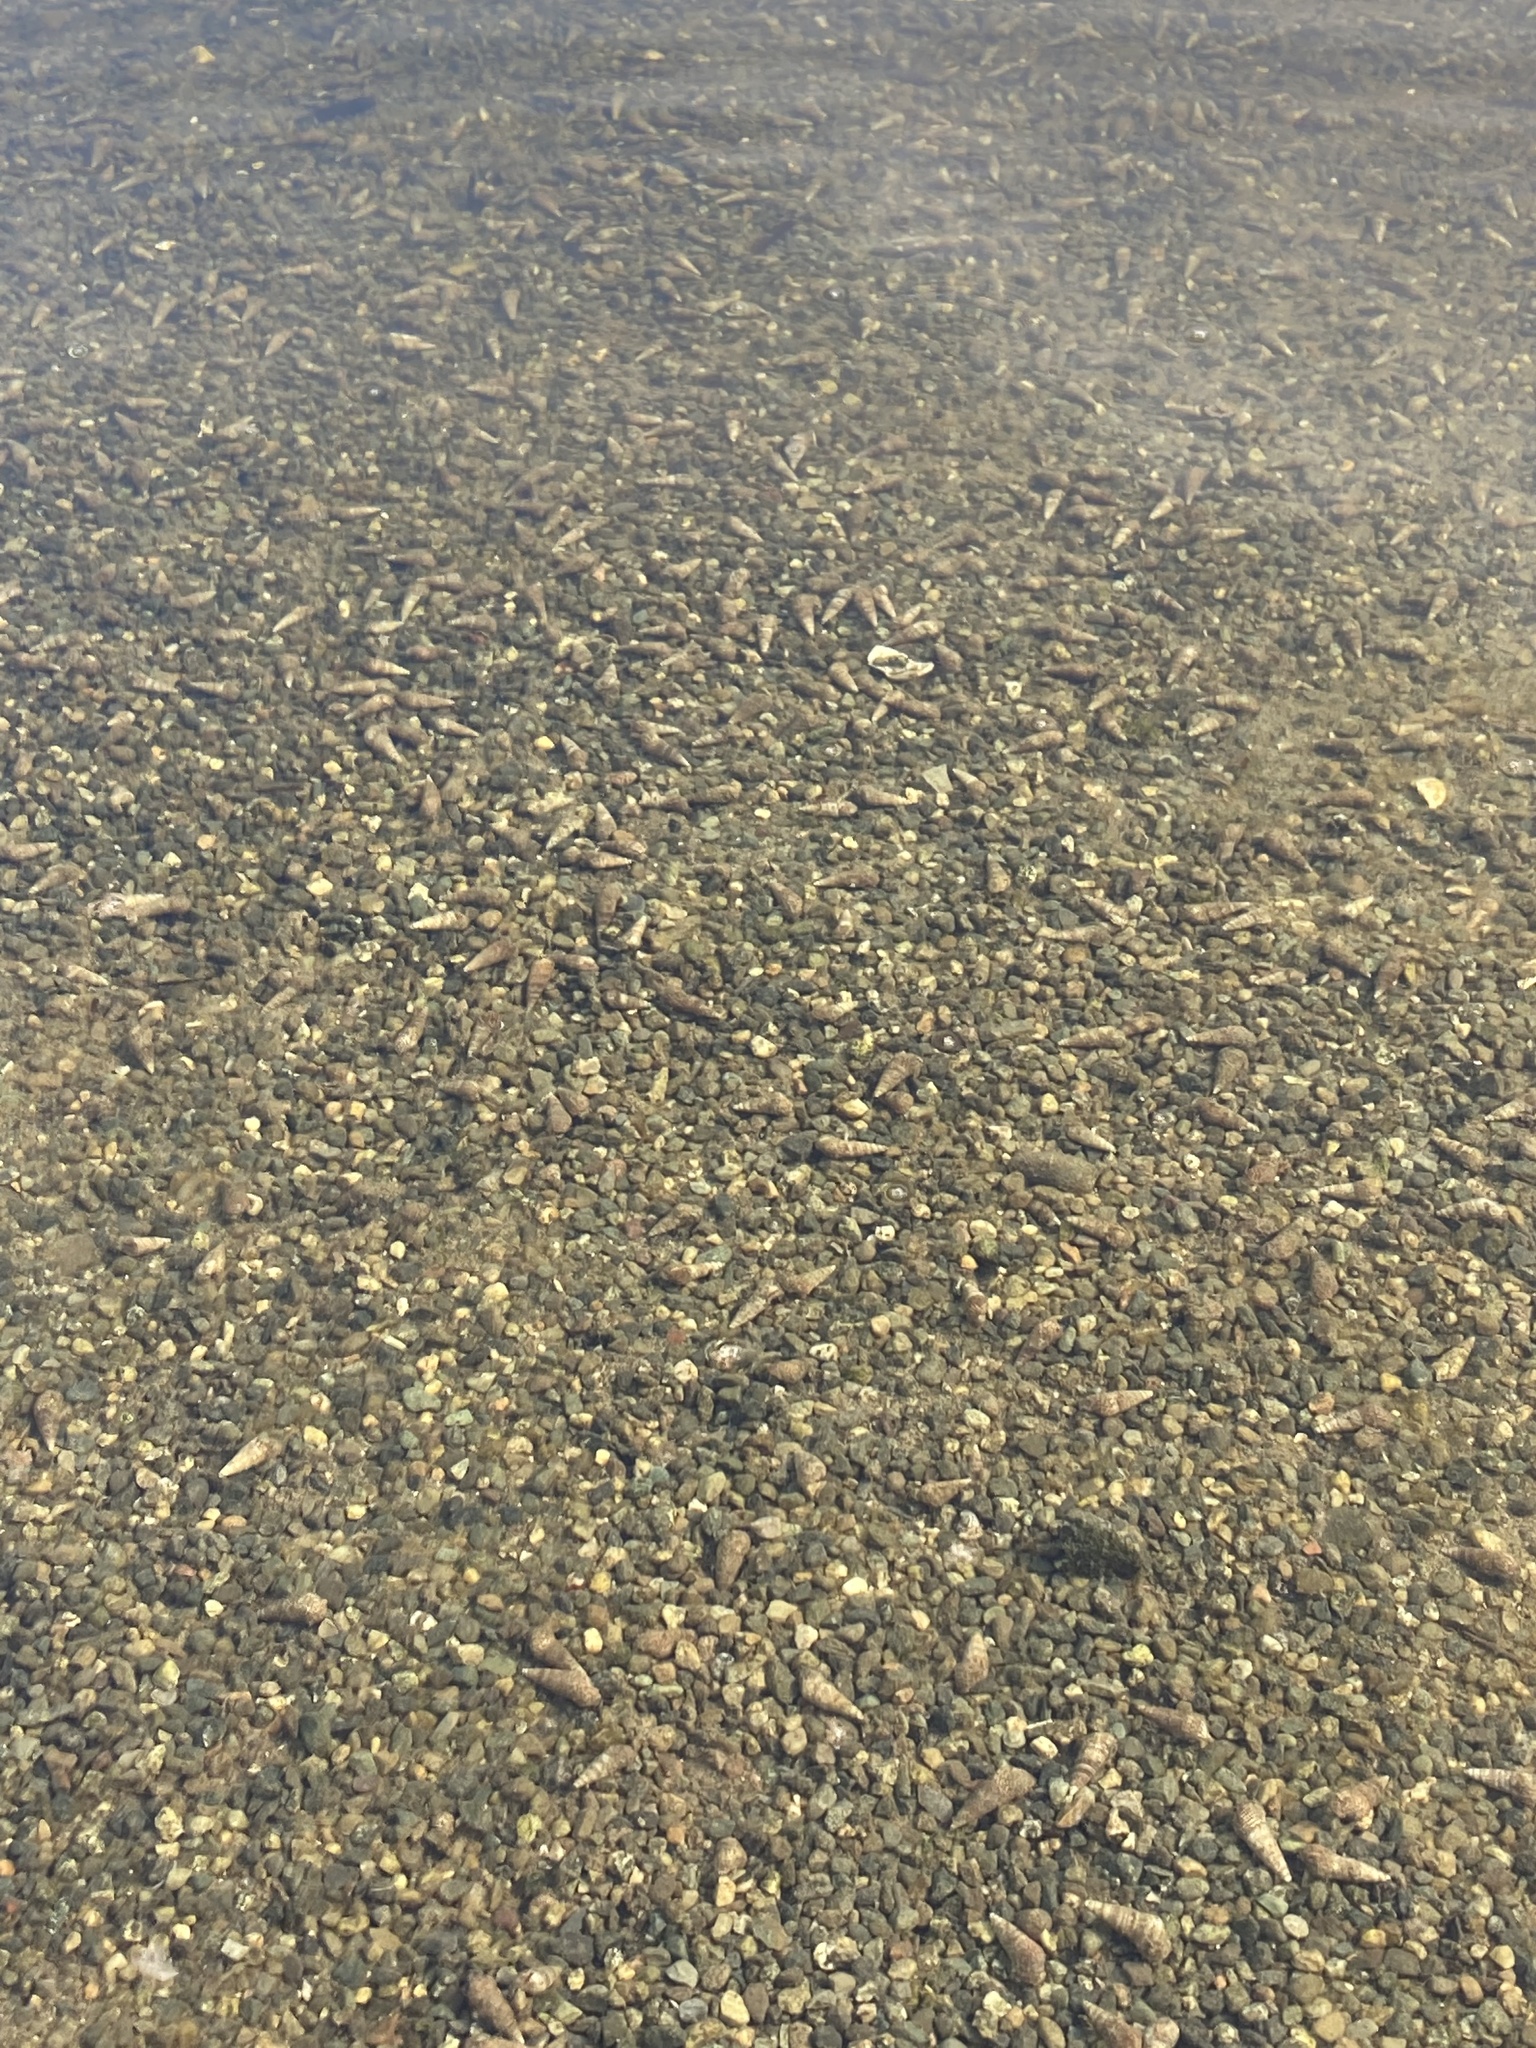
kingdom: Animalia
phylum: Mollusca
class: Gastropoda
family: Batillariidae
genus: Batillaria
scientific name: Batillaria attramentaria
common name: Japanese false cerith
